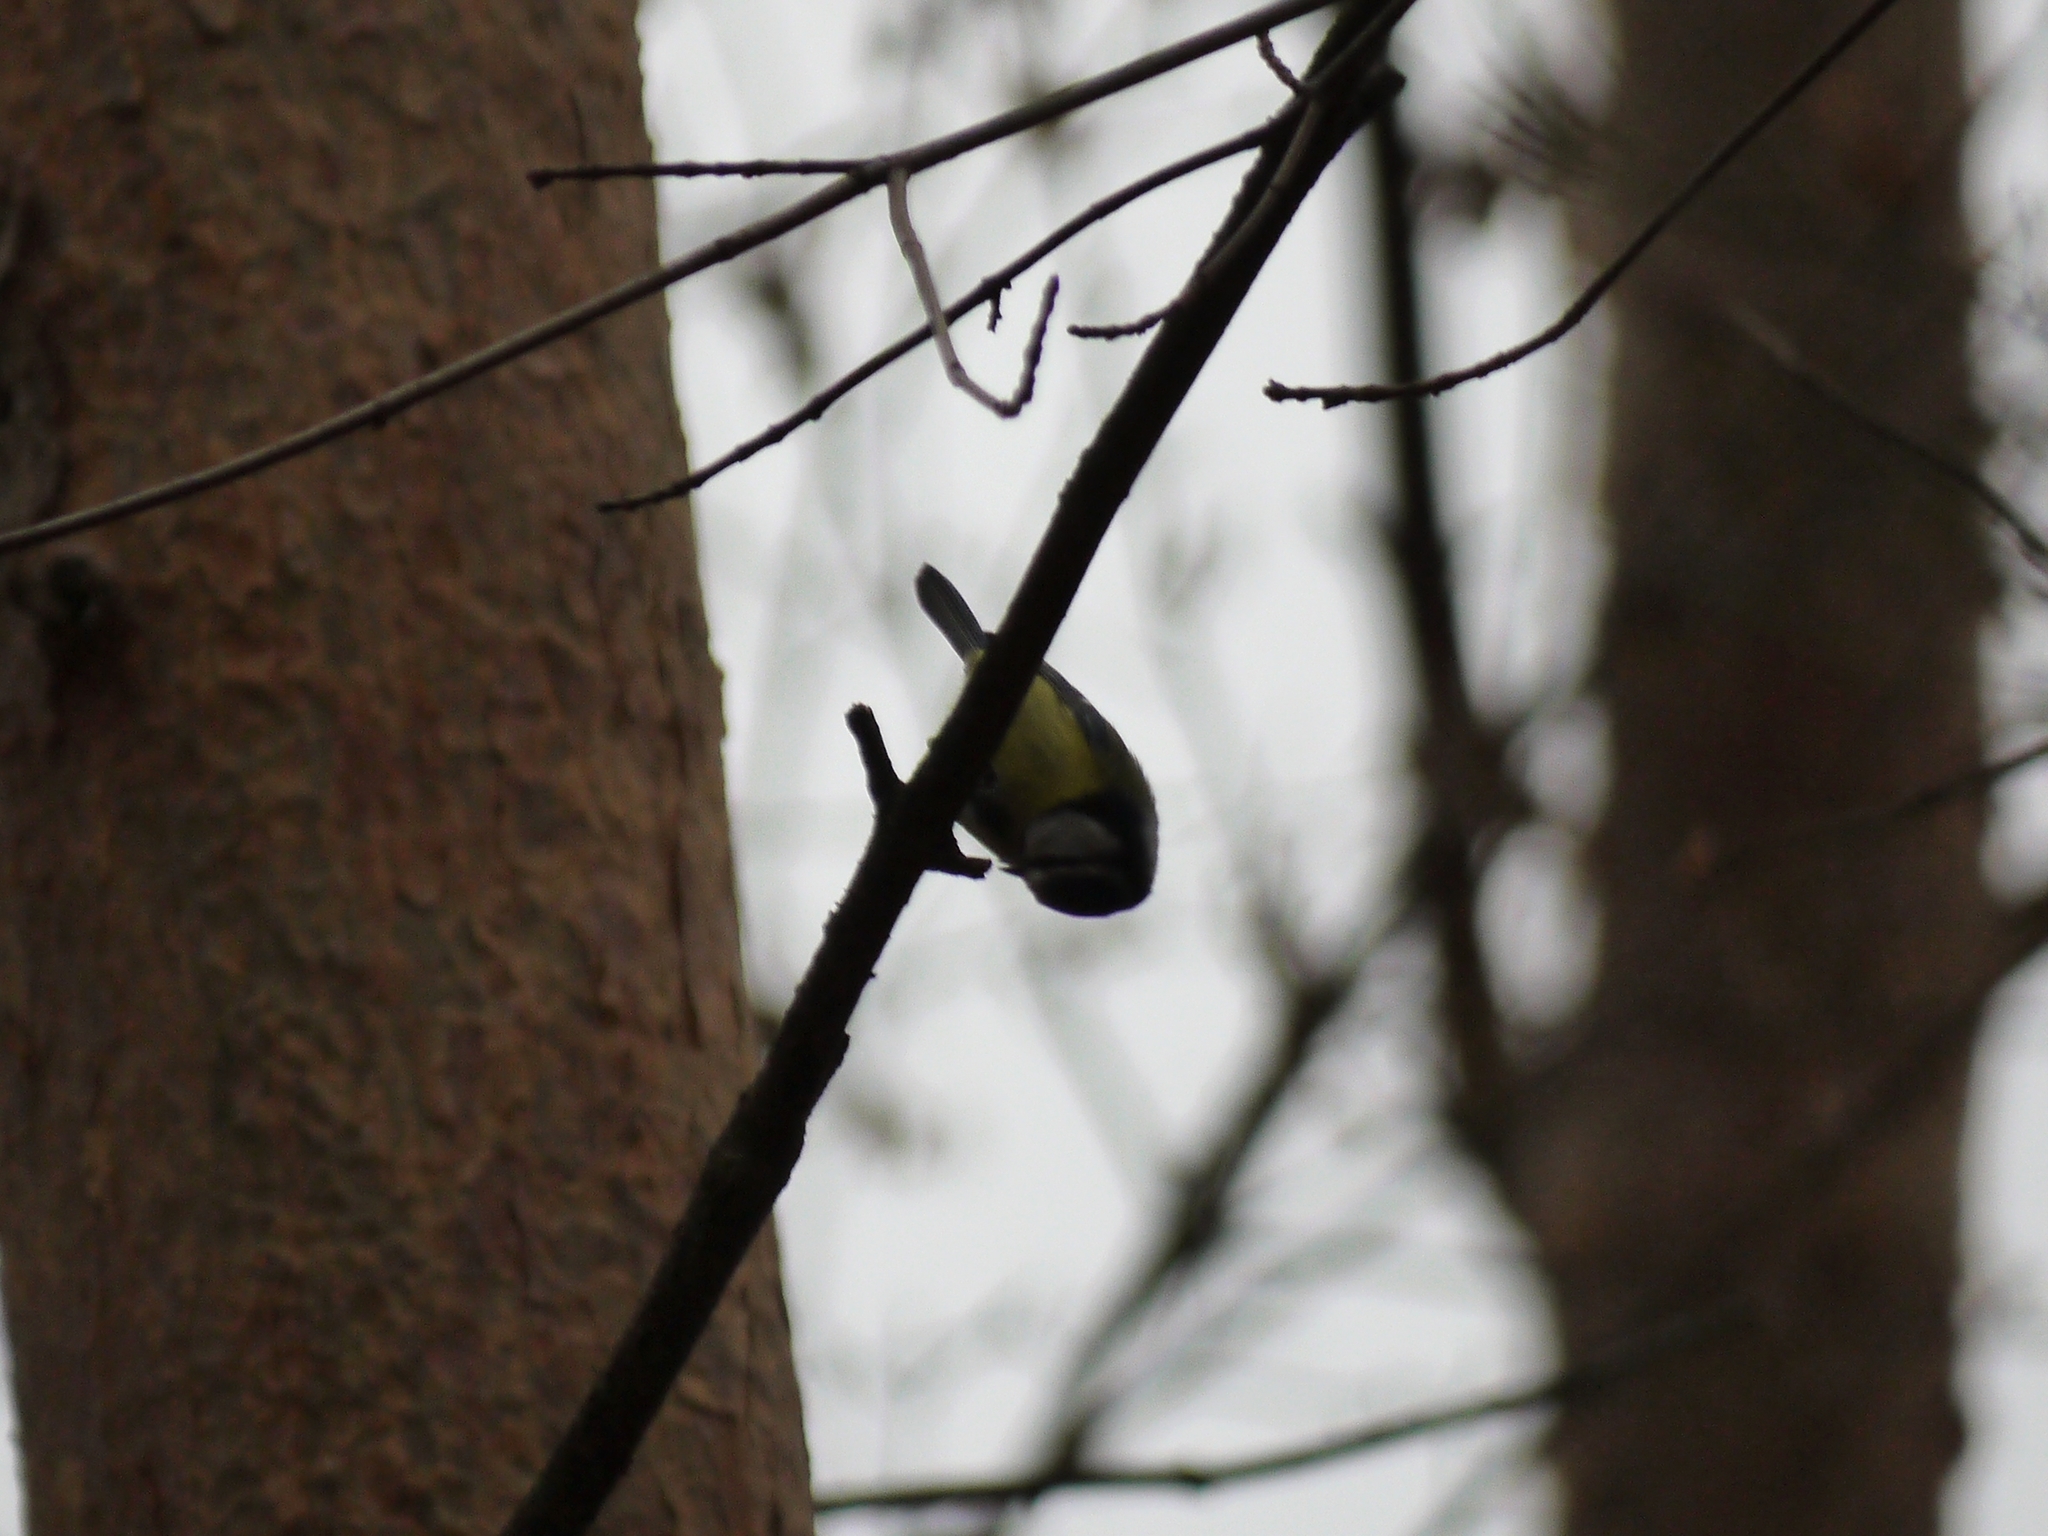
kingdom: Animalia
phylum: Chordata
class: Aves
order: Passeriformes
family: Paridae
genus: Cyanistes
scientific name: Cyanistes caeruleus
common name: Eurasian blue tit
